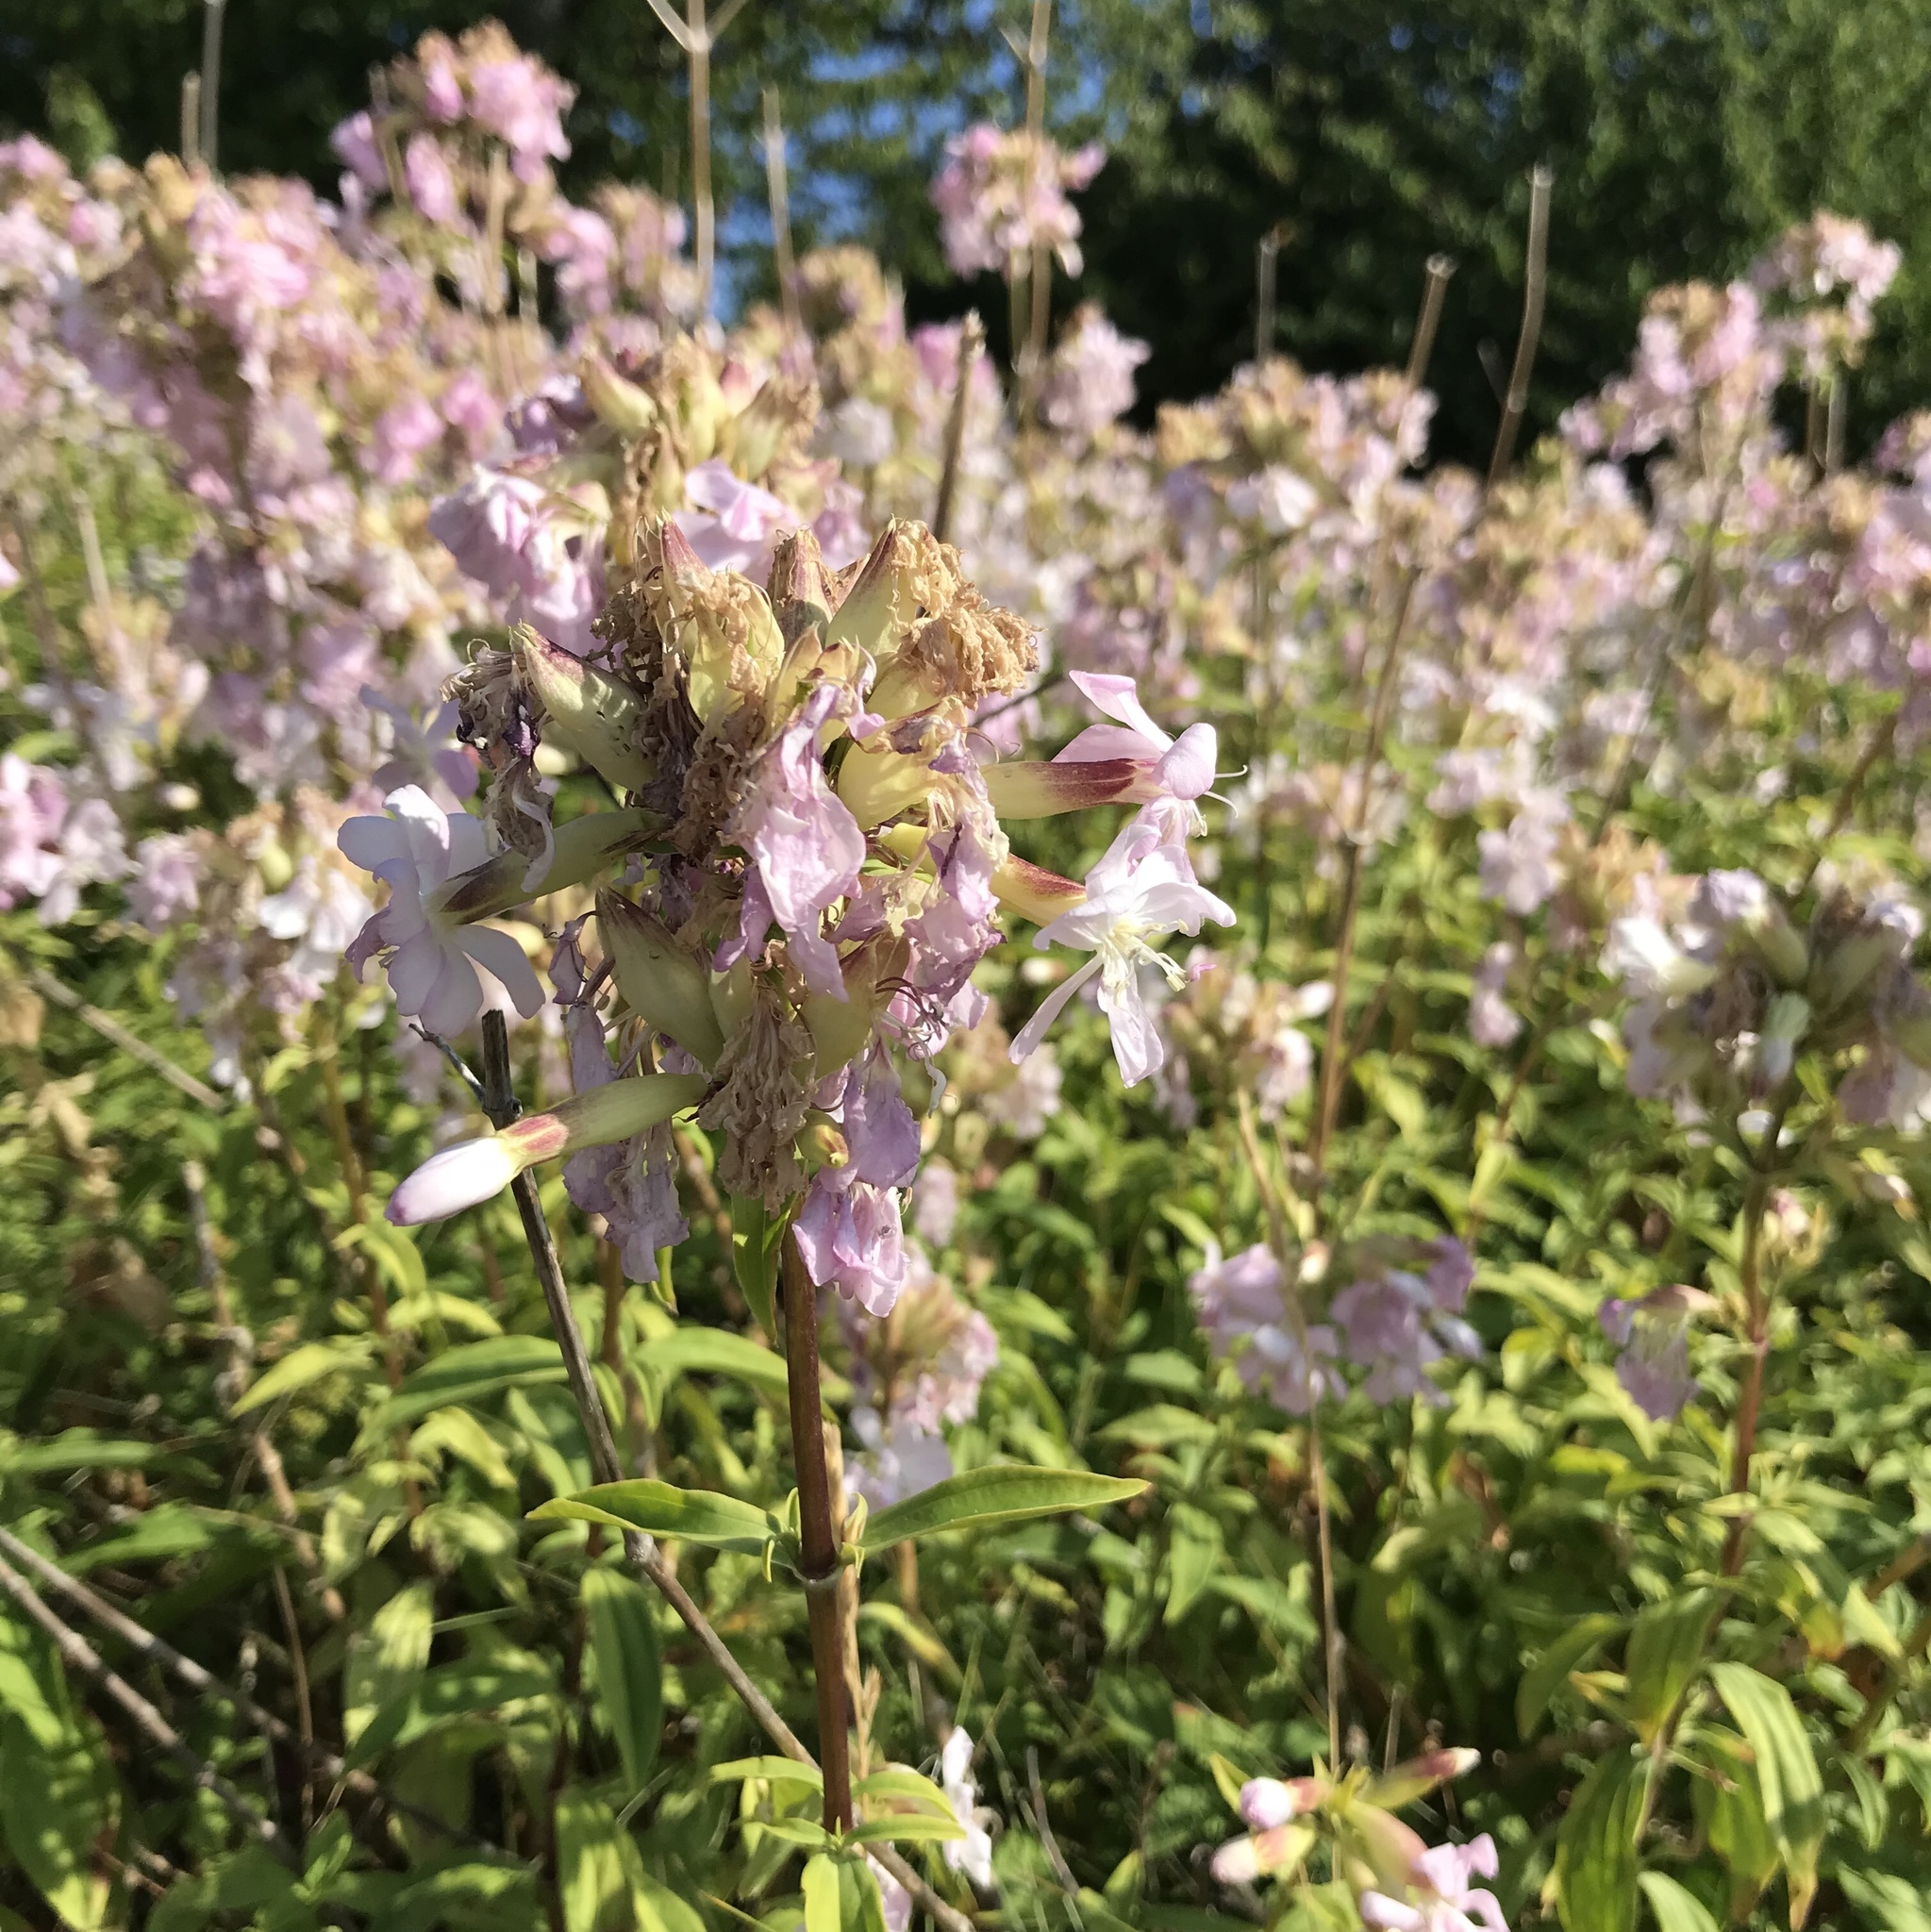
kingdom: Plantae
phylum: Tracheophyta
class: Magnoliopsida
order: Caryophyllales
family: Caryophyllaceae
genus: Saponaria
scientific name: Saponaria officinalis
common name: Soapwort
